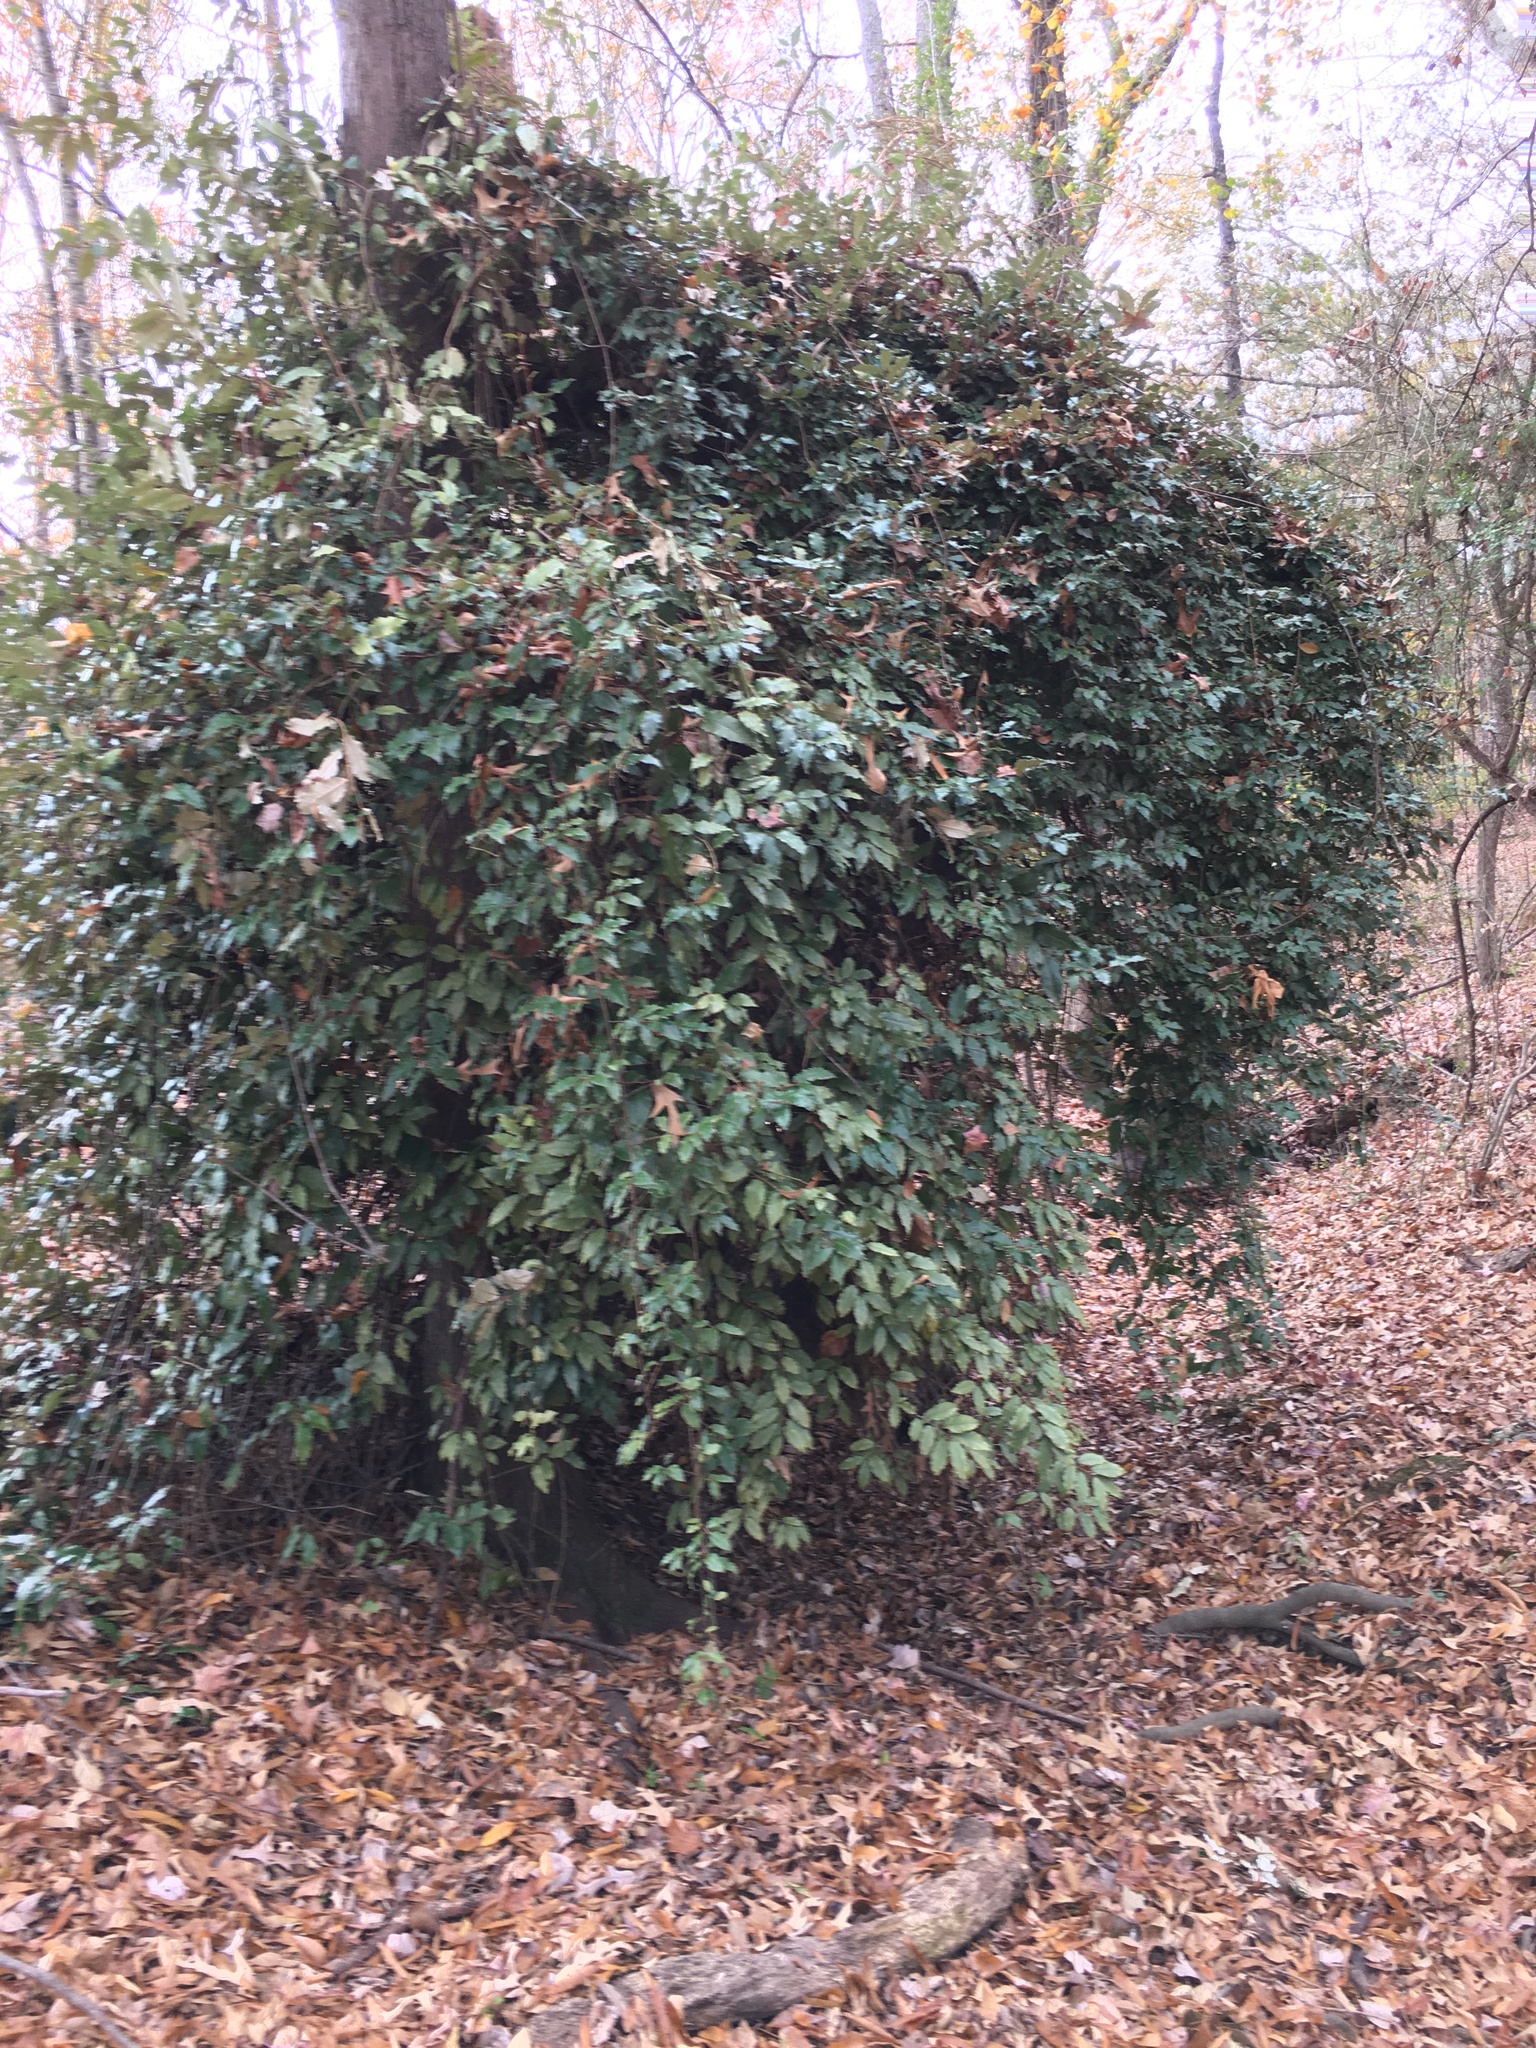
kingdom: Plantae
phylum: Tracheophyta
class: Magnoliopsida
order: Rosales
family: Elaeagnaceae
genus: Elaeagnus
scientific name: Elaeagnus pungens
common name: Spiny oleaster
